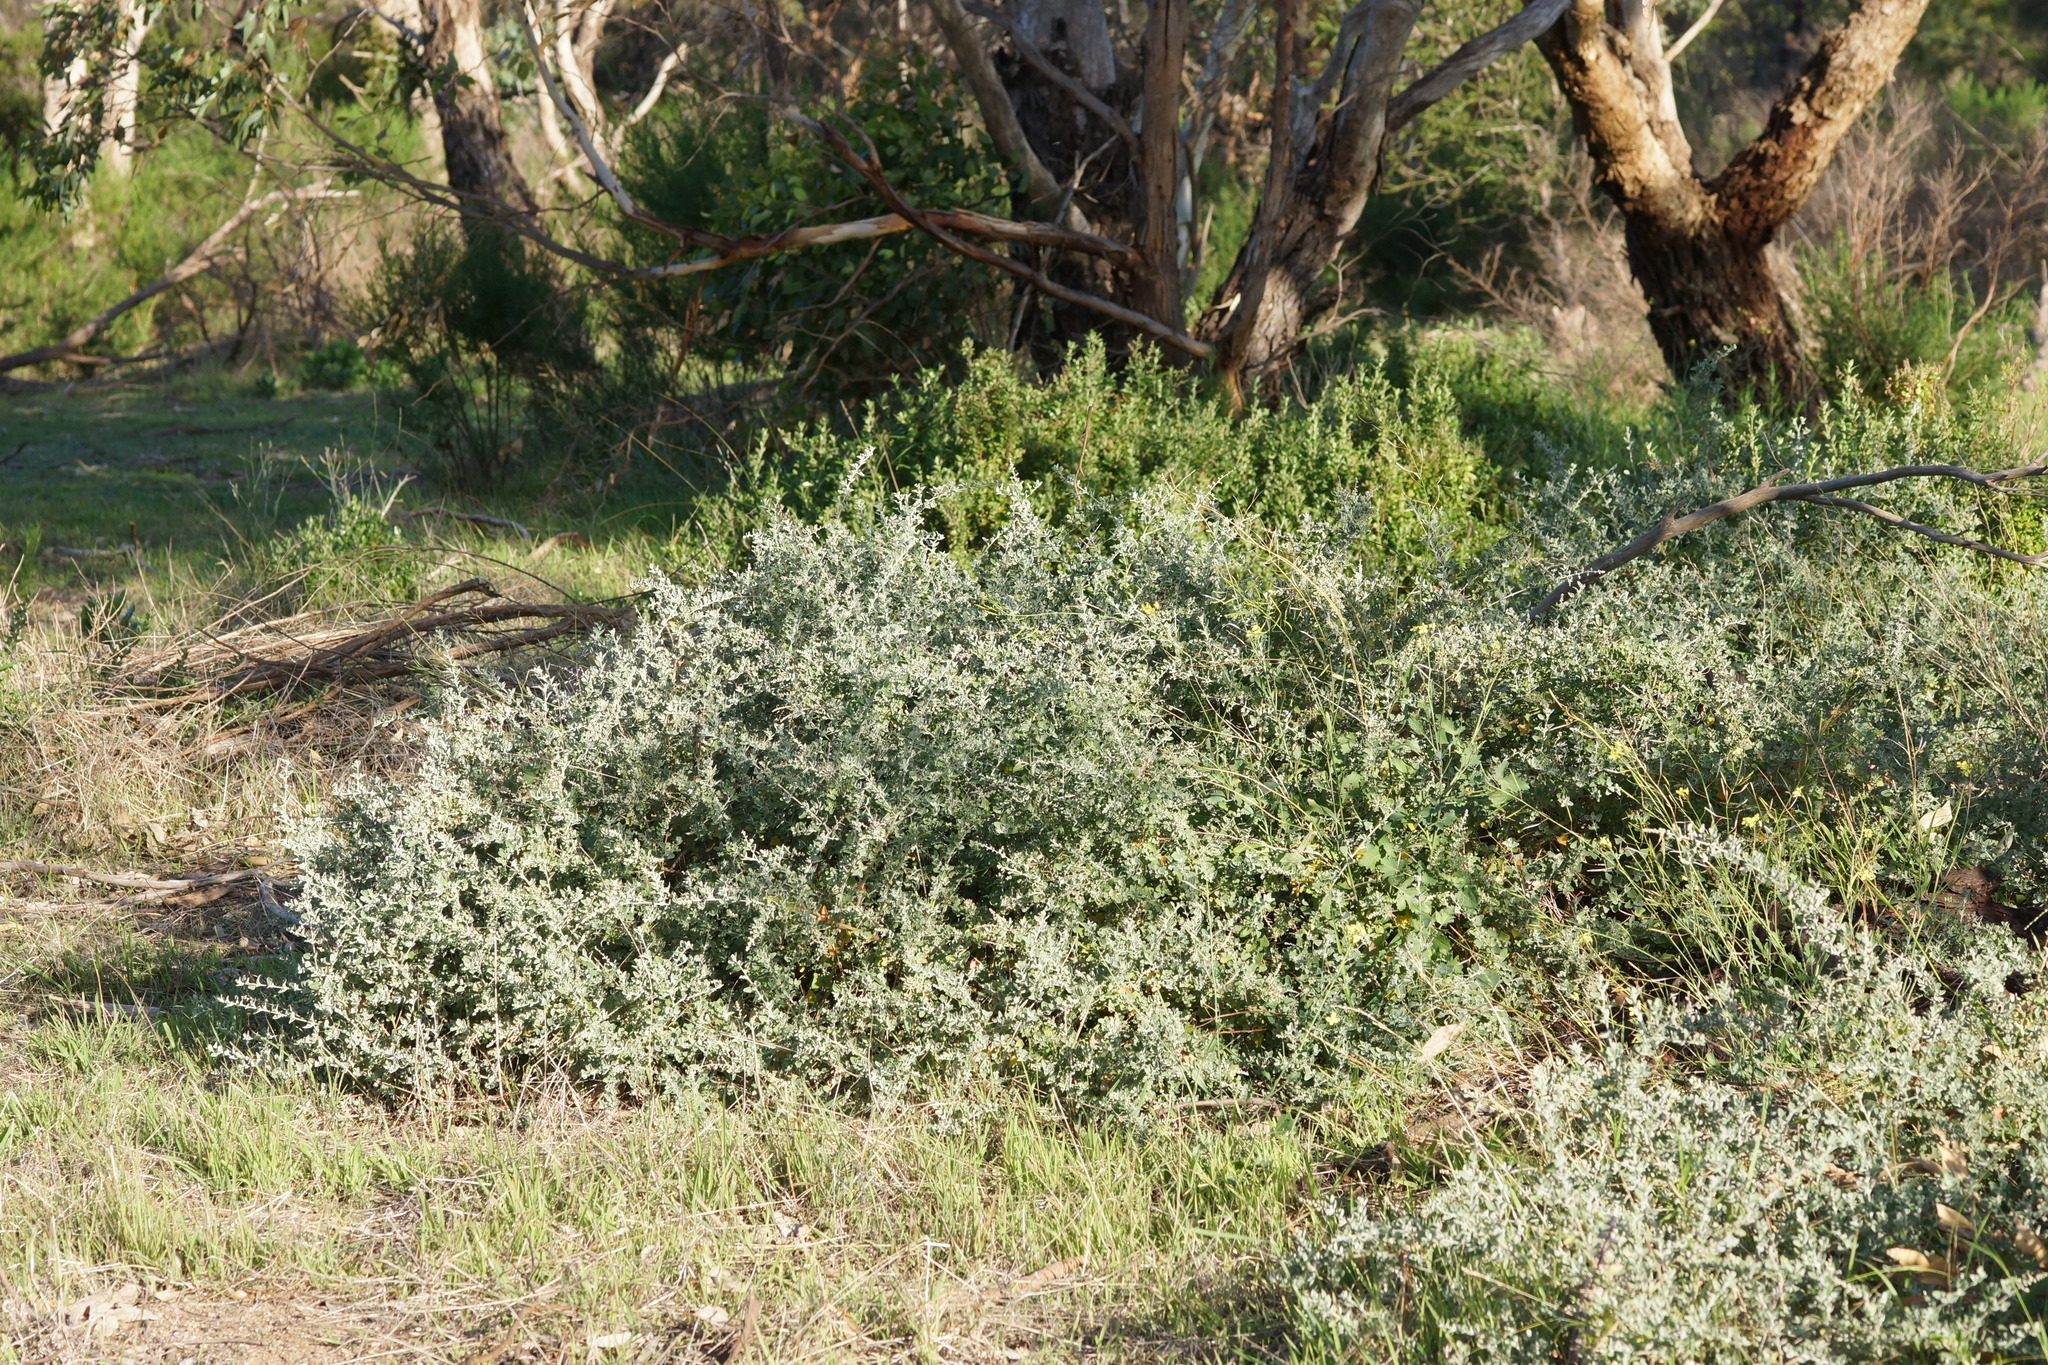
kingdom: Plantae
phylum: Tracheophyta
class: Magnoliopsida
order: Caryophyllales
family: Amaranthaceae
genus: Chenopodium
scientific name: Chenopodium parabolicum
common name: Old-man-saltbush
